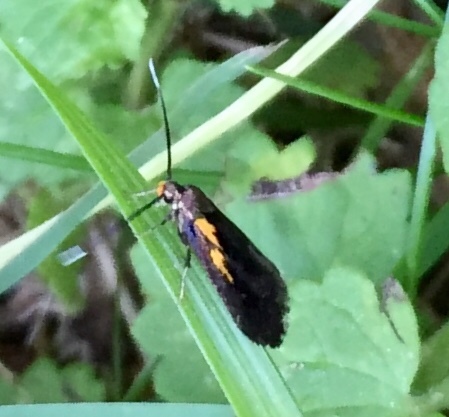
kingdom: Animalia
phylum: Arthropoda
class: Insecta
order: Lepidoptera
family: Oecophoridae
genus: Mathildana
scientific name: Mathildana newmanella
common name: Newman's mathildana moth
